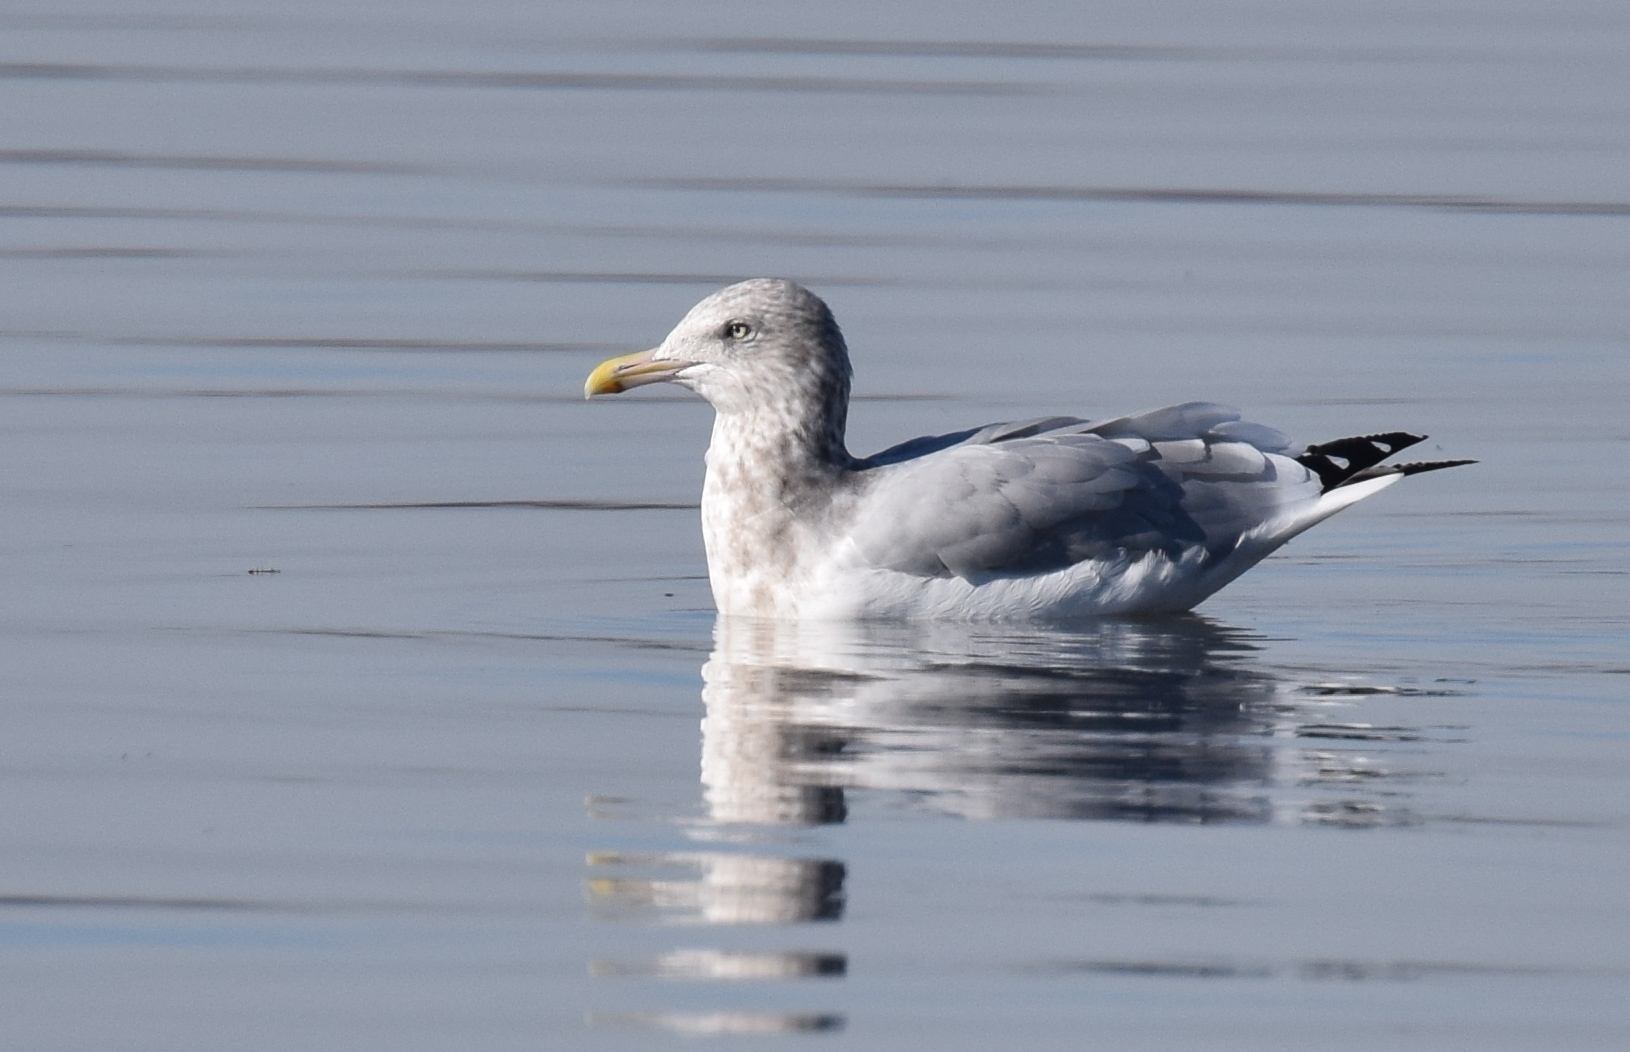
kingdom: Animalia
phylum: Chordata
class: Aves
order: Charadriiformes
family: Laridae
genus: Larus
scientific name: Larus argentatus
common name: Herring gull
